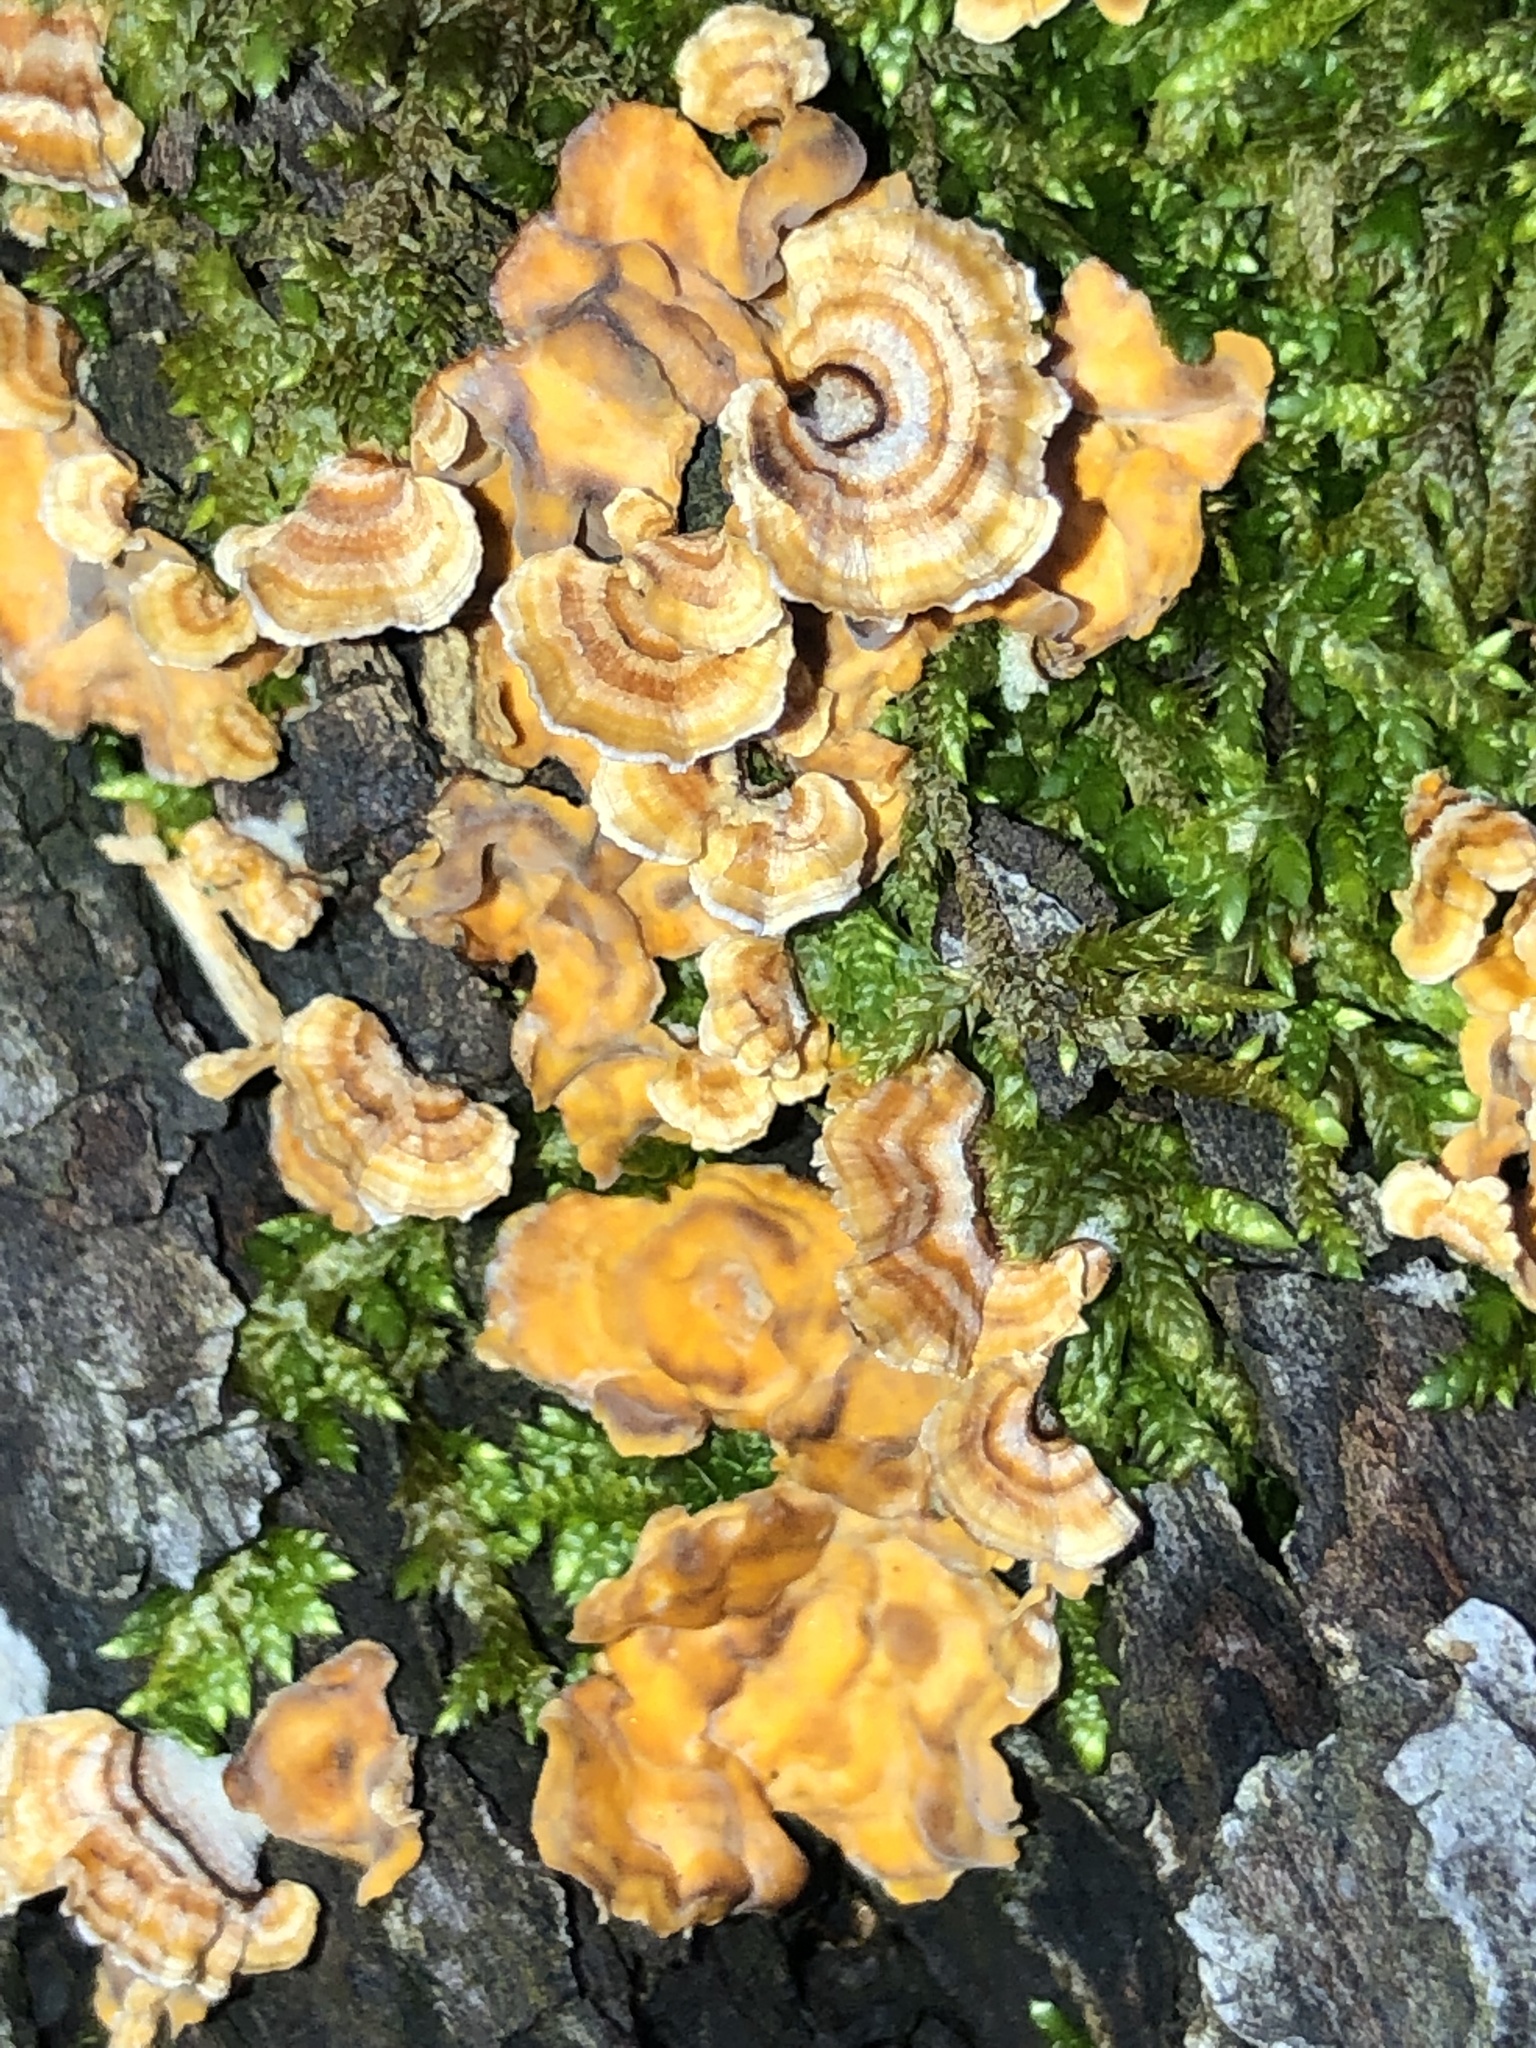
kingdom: Fungi
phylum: Basidiomycota
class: Agaricomycetes
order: Russulales
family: Stereaceae
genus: Stereum
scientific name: Stereum complicatum
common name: Crowded parchment
